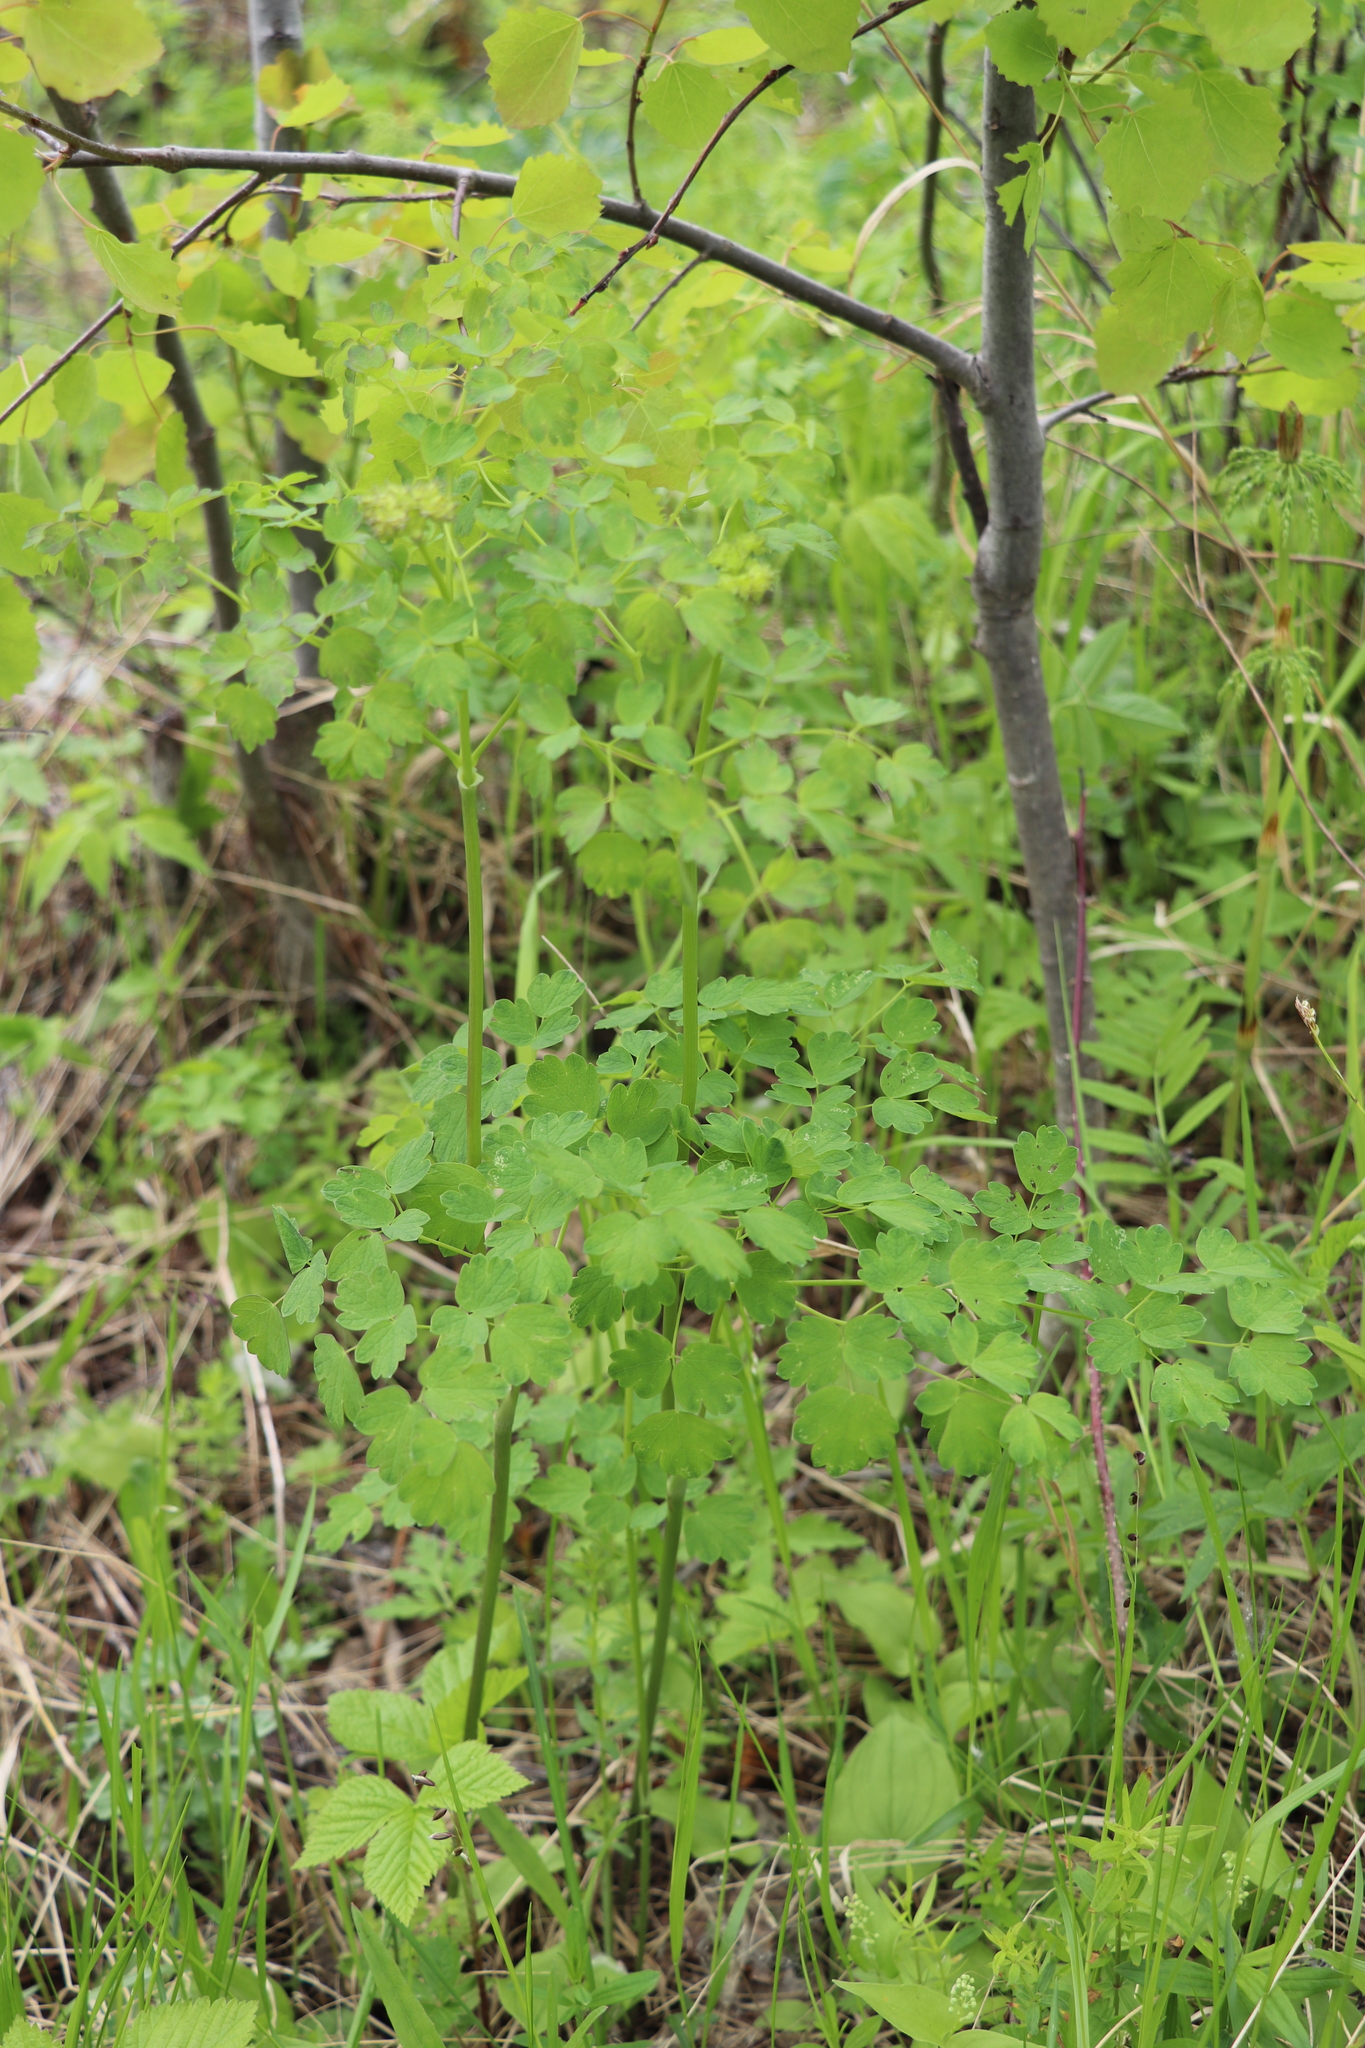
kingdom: Plantae
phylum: Tracheophyta
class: Magnoliopsida
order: Ranunculales
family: Ranunculaceae
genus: Thalictrum
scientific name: Thalictrum minus
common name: Lesser meadow-rue
